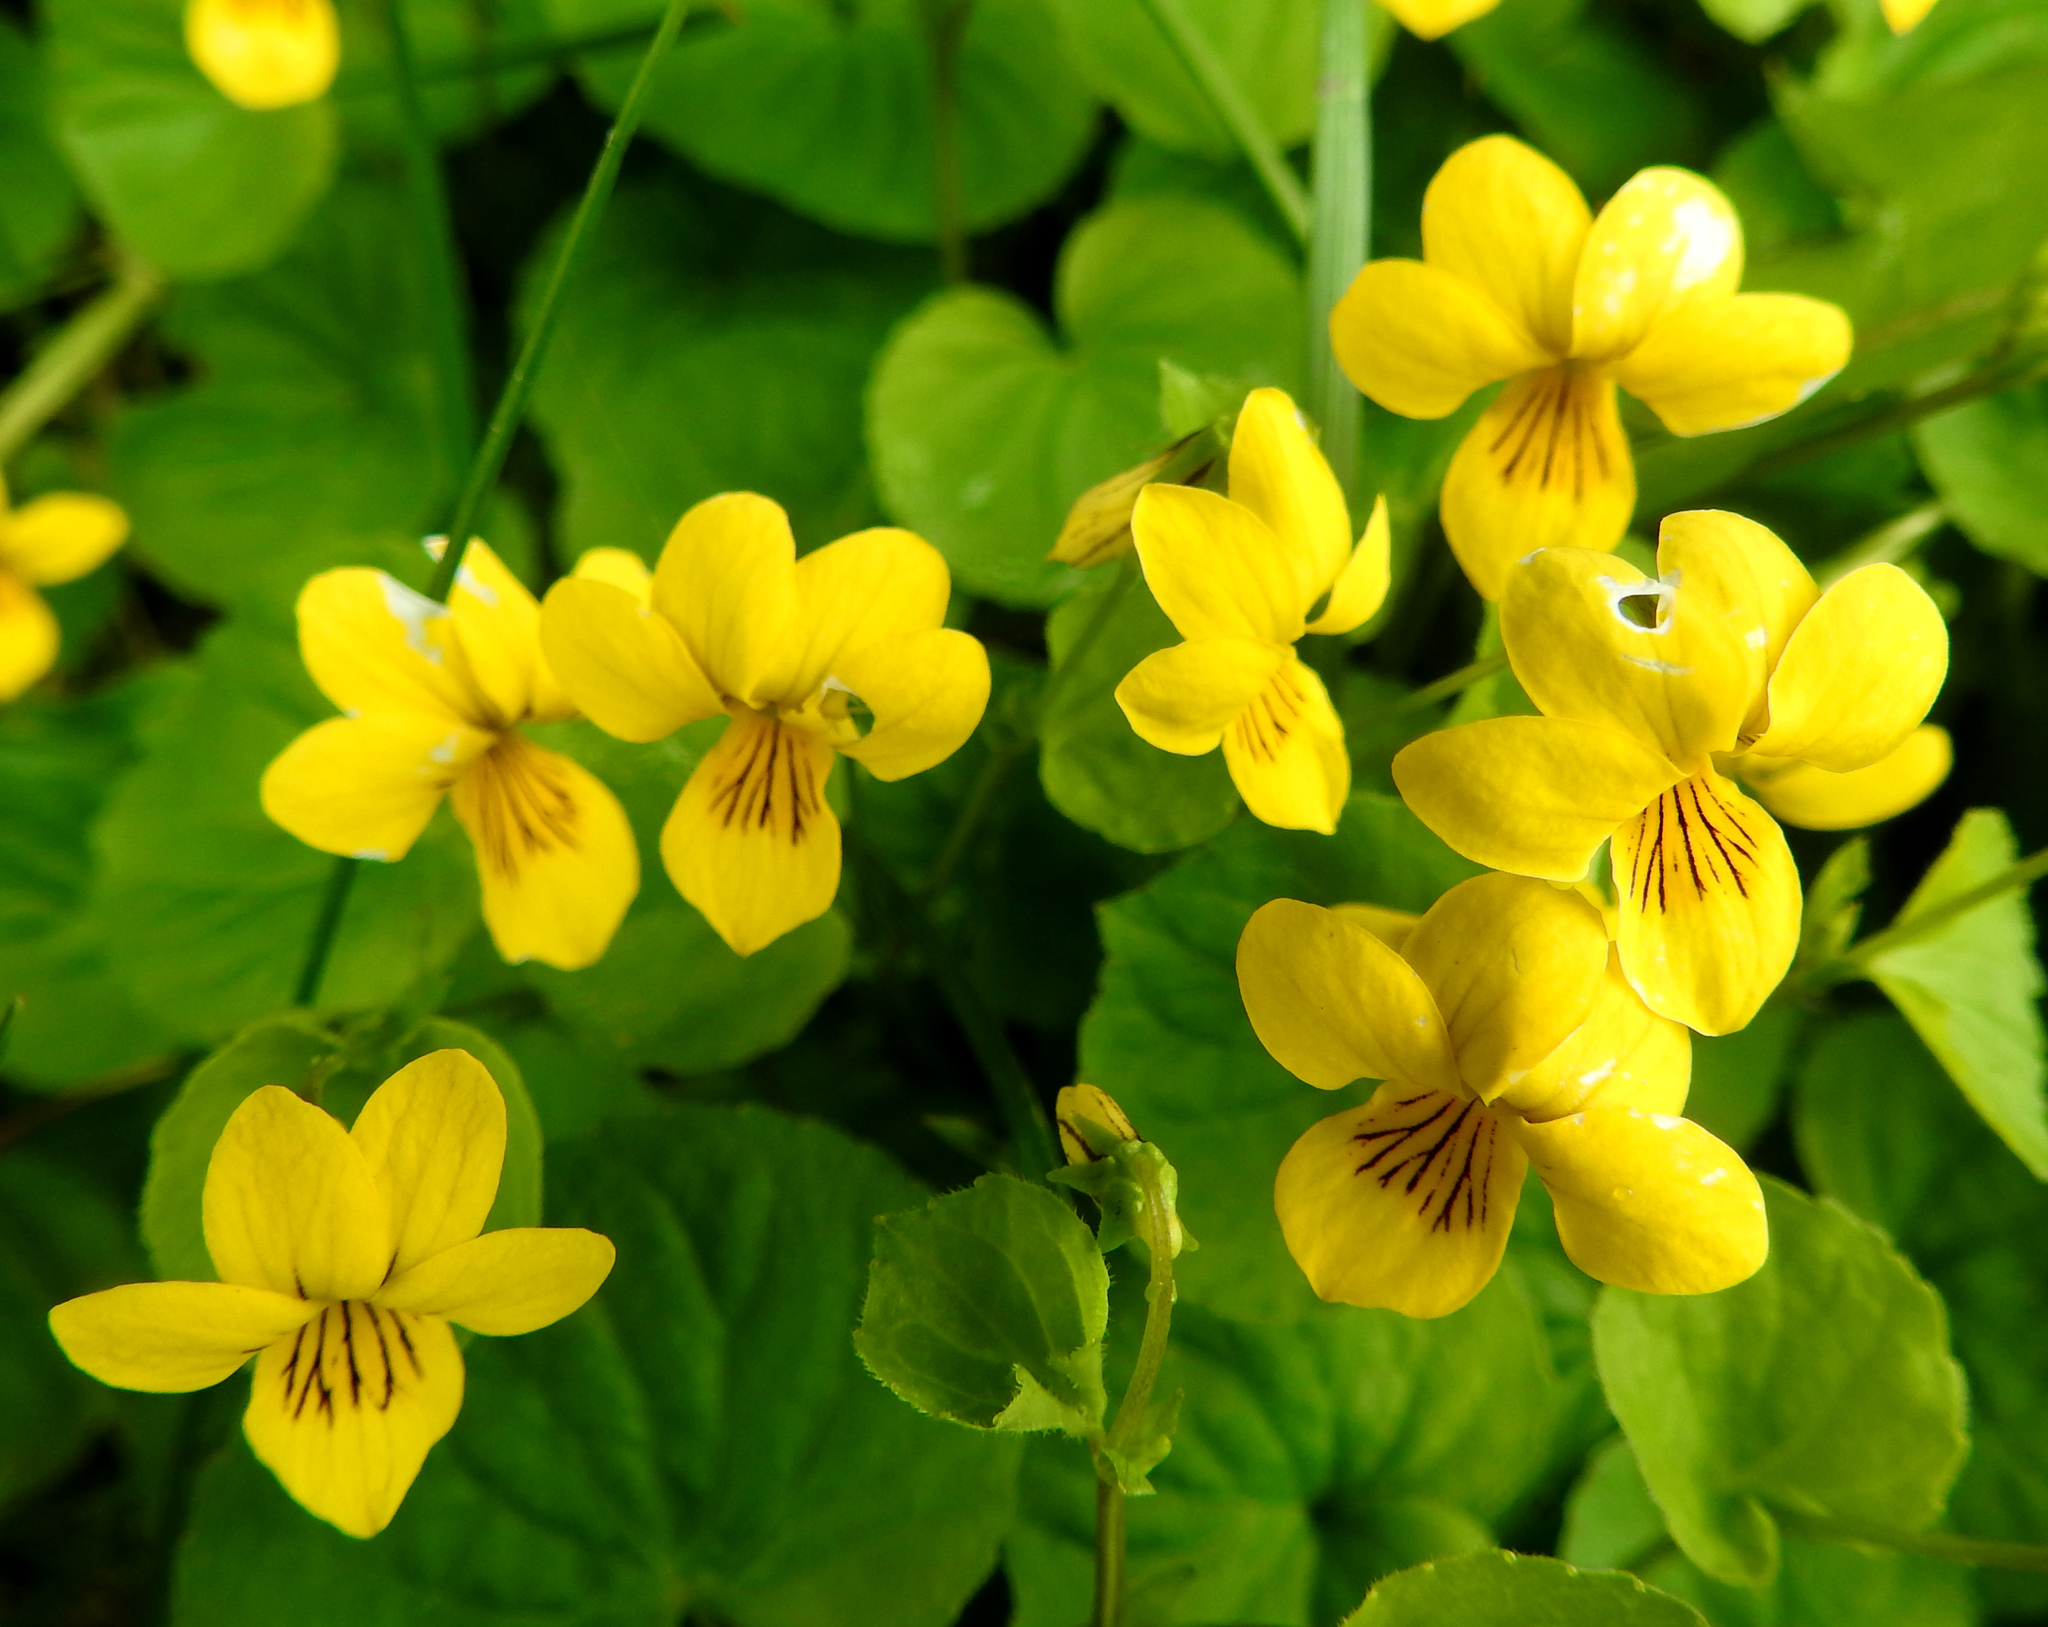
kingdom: Plantae
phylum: Tracheophyta
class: Magnoliopsida
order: Malpighiales
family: Violaceae
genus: Viola
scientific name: Viola biflora
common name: Alpine yellow violet
